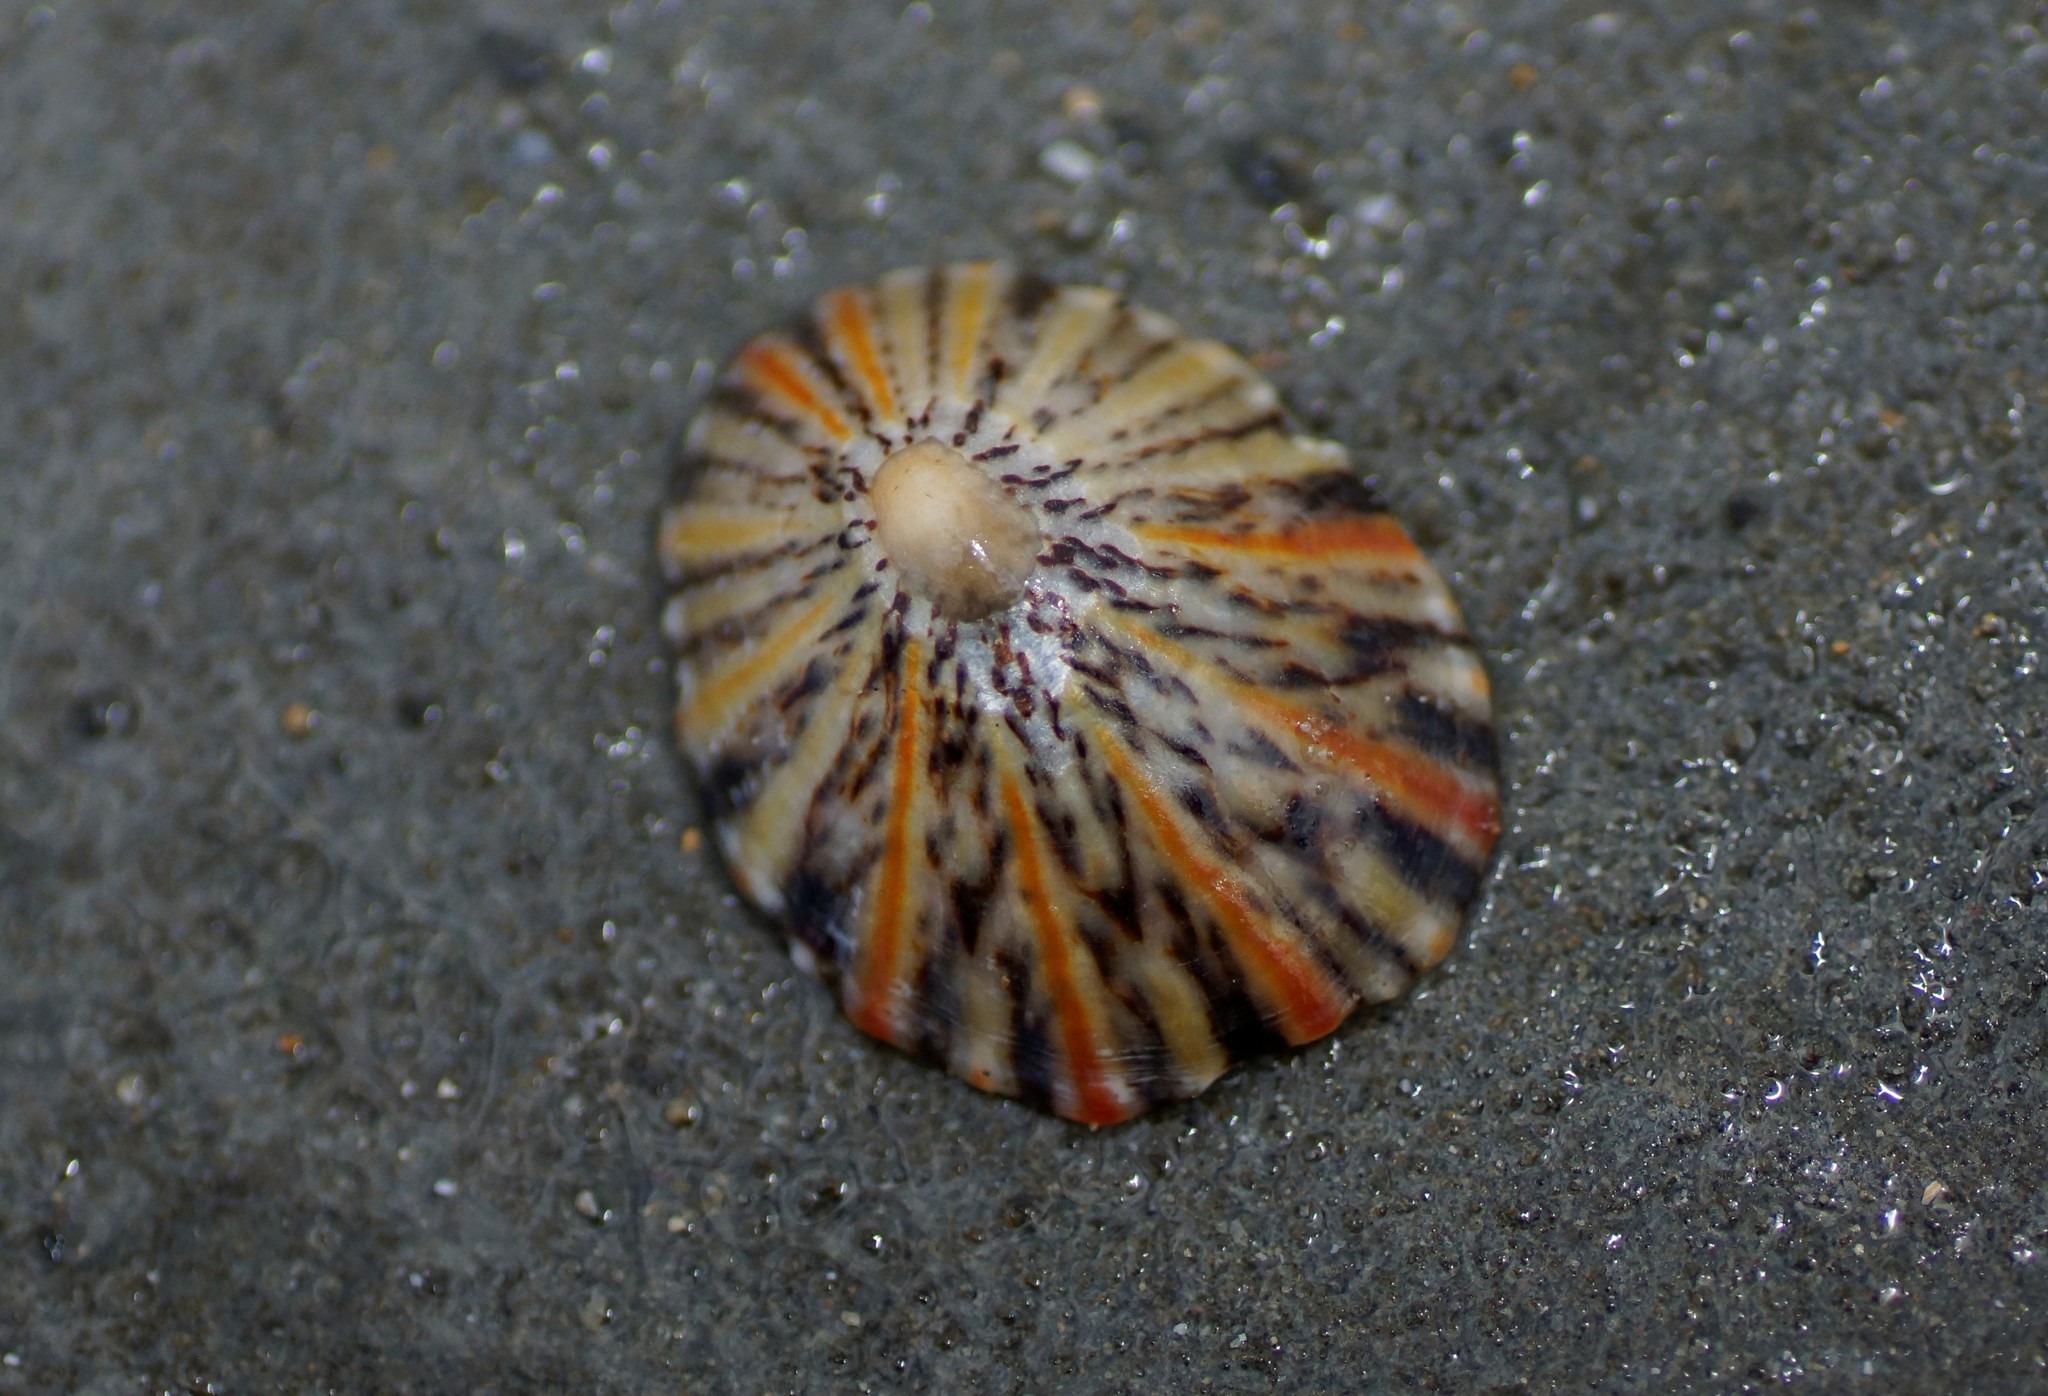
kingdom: Animalia
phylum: Mollusca
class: Gastropoda
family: Nacellidae
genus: Cellana
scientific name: Cellana tramoserica
